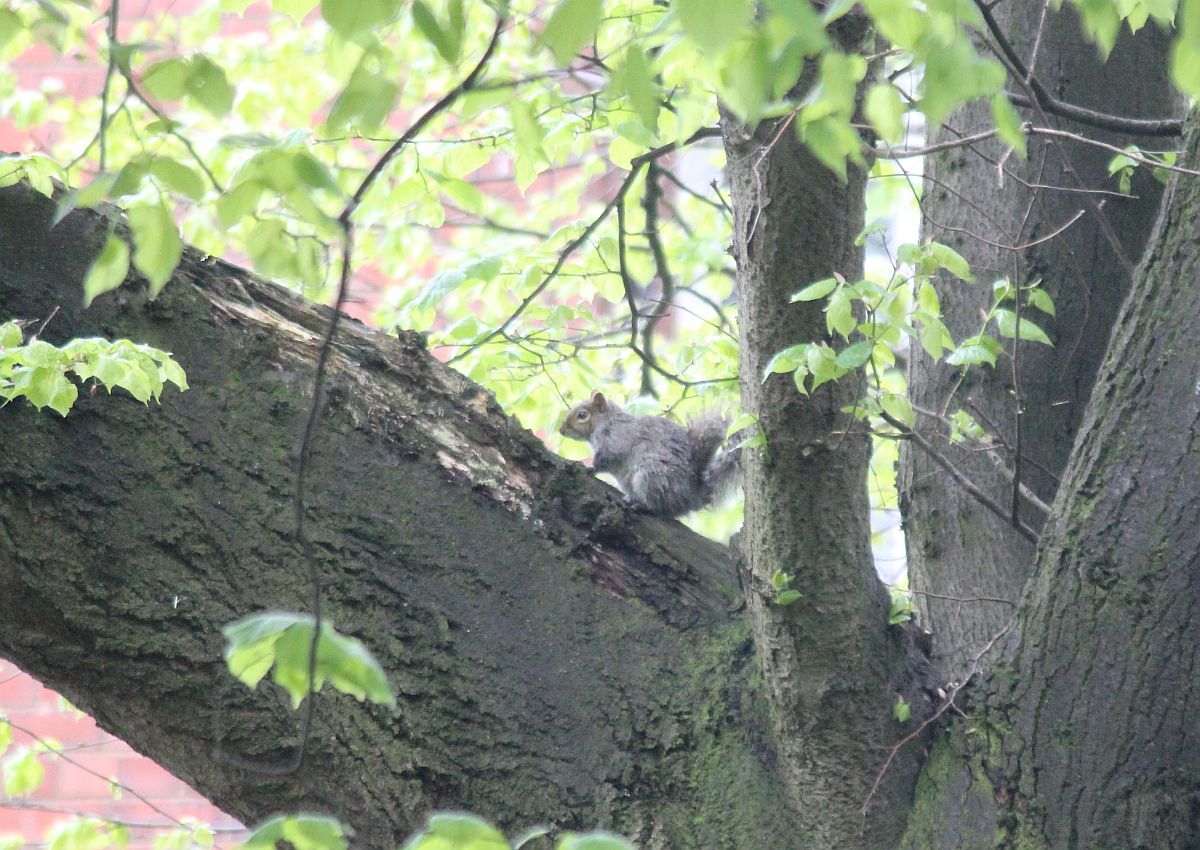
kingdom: Animalia
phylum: Chordata
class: Mammalia
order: Rodentia
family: Sciuridae
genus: Sciurus
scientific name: Sciurus carolinensis
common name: Eastern gray squirrel
